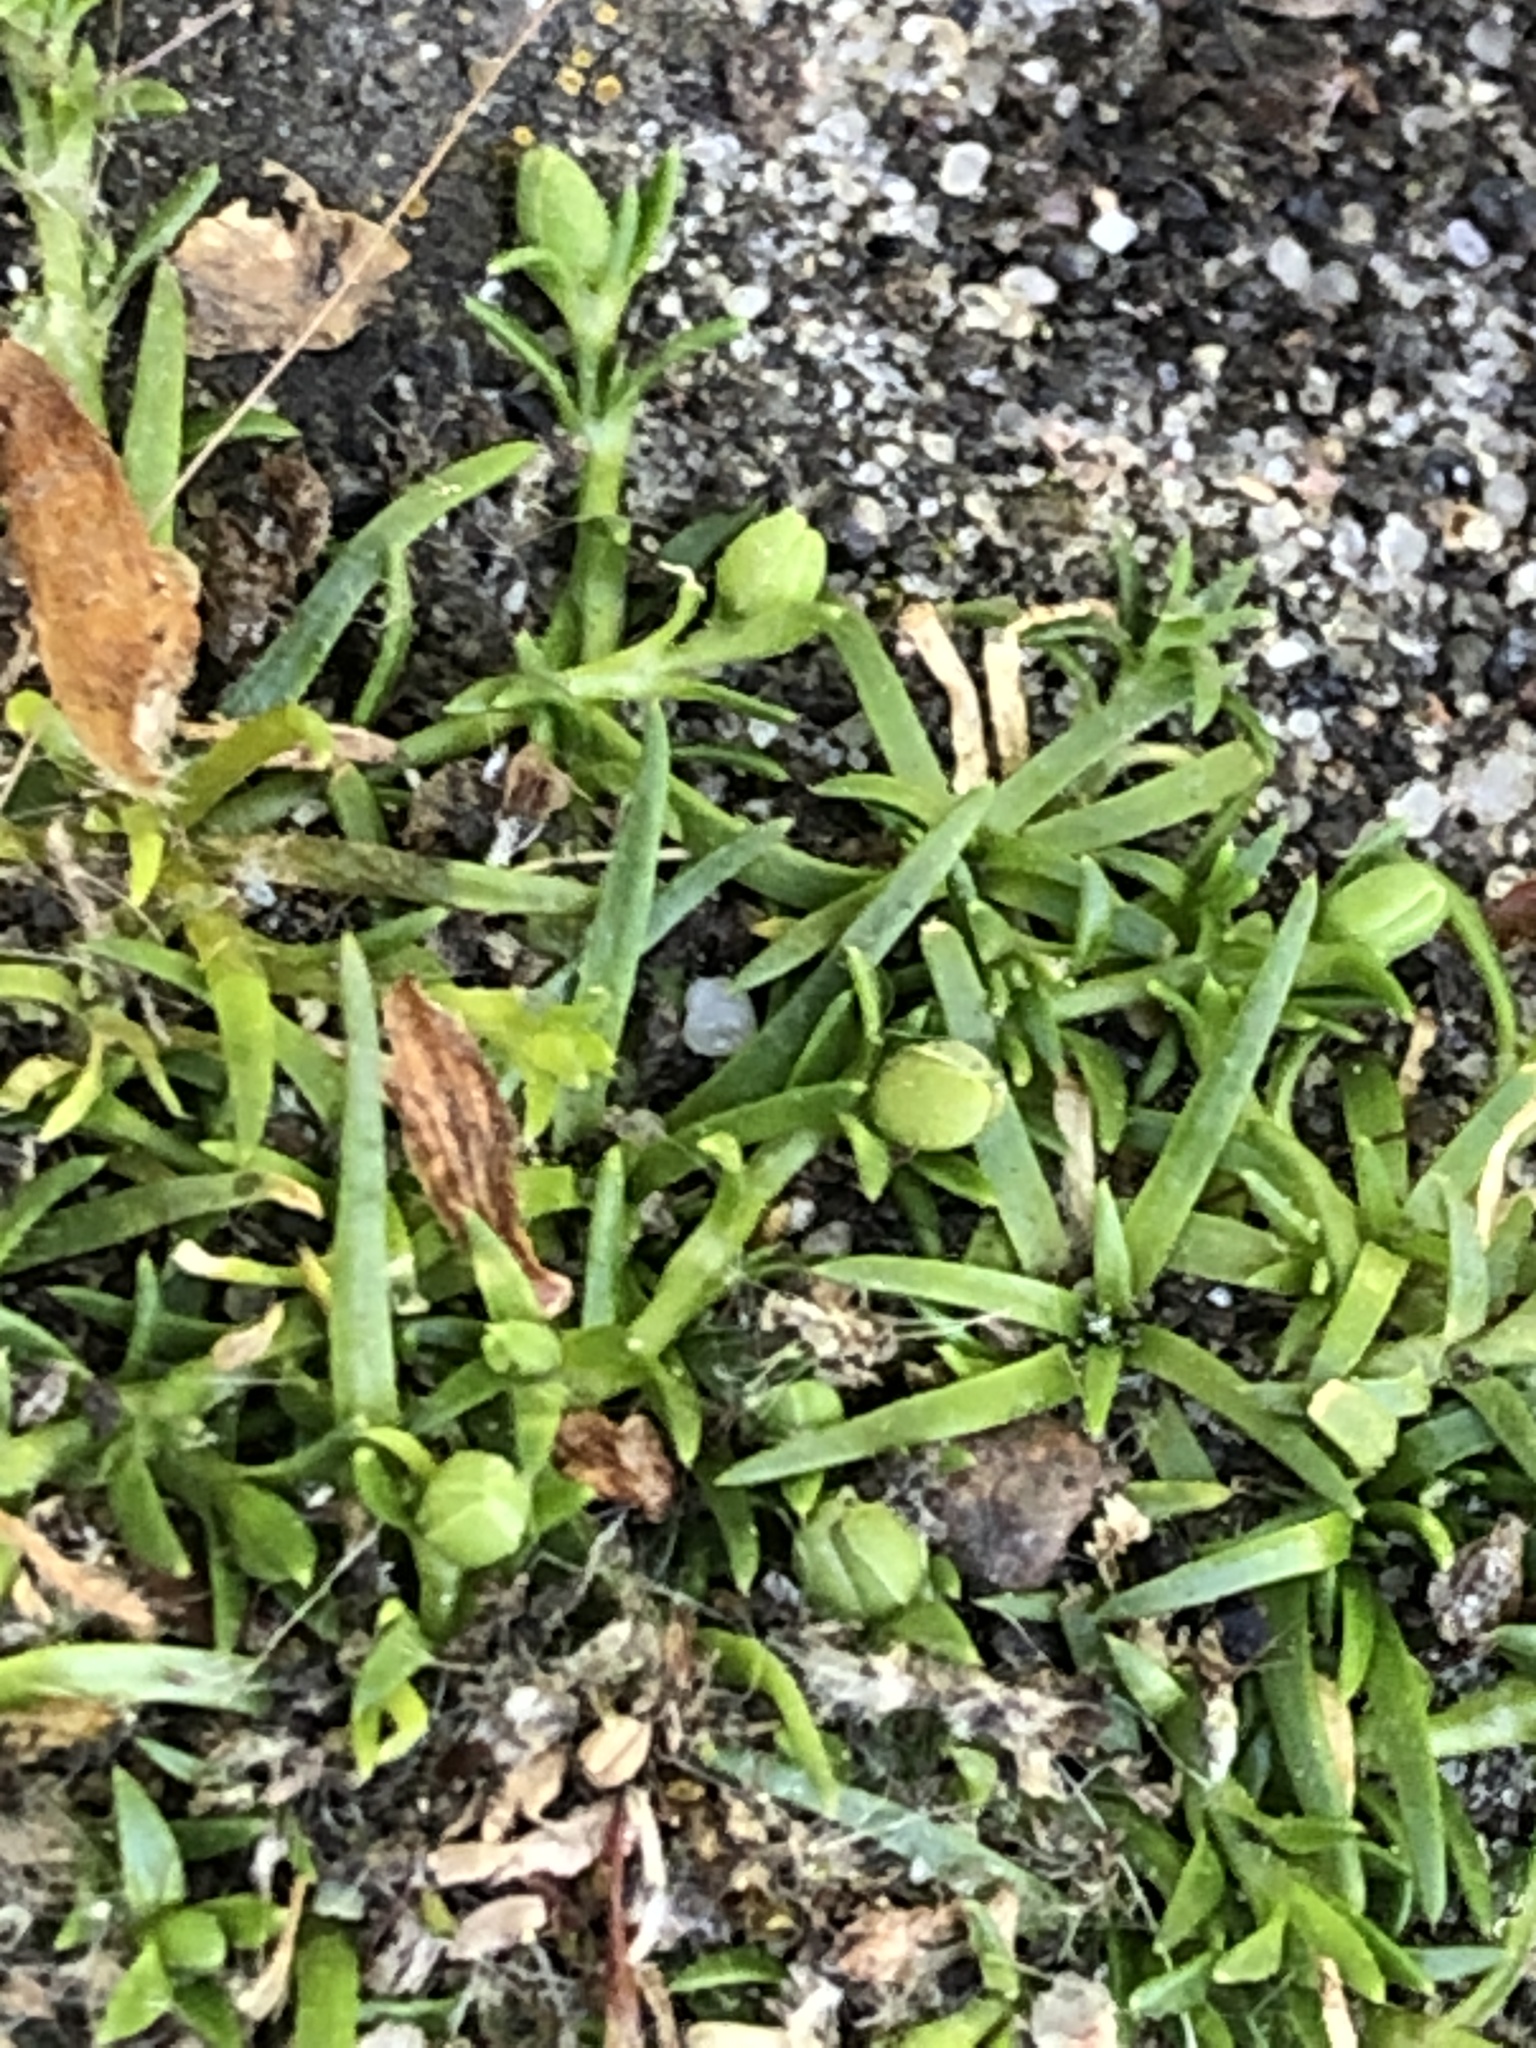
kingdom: Plantae
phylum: Tracheophyta
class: Magnoliopsida
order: Caryophyllales
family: Caryophyllaceae
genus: Sagina
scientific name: Sagina procumbens
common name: Procumbent pearlwort
